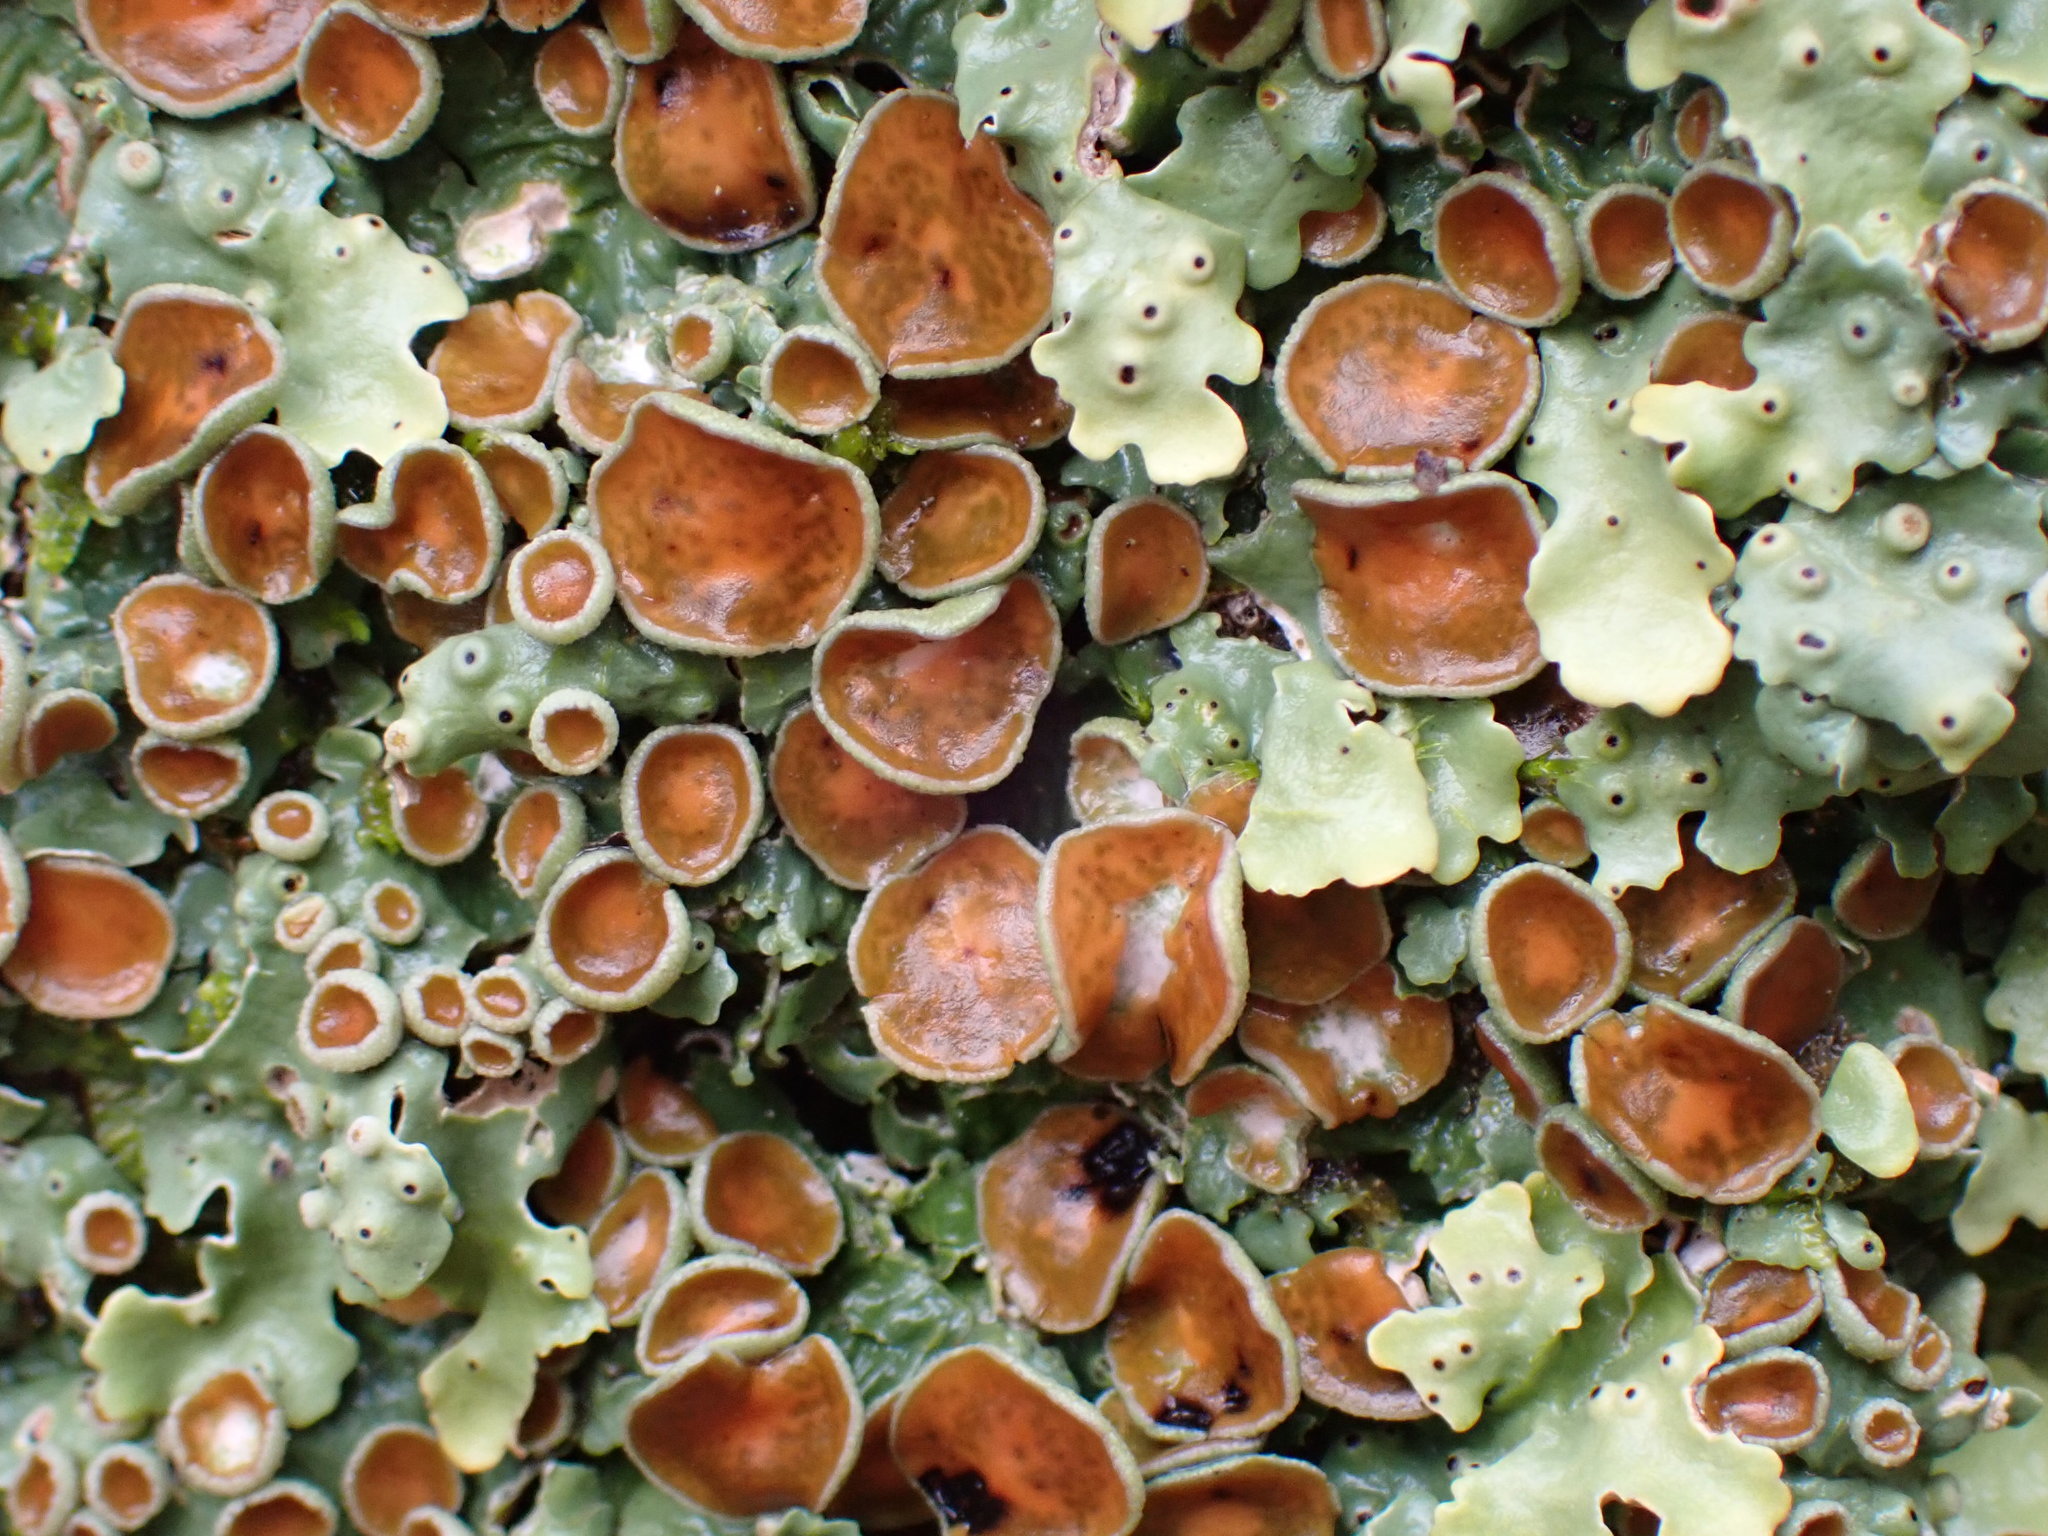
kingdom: Fungi
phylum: Ascomycota
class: Lecanoromycetes
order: Peltigerales
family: Lobariaceae
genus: Ricasolia
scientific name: Ricasolia quercizans
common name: Smooth lungwort
